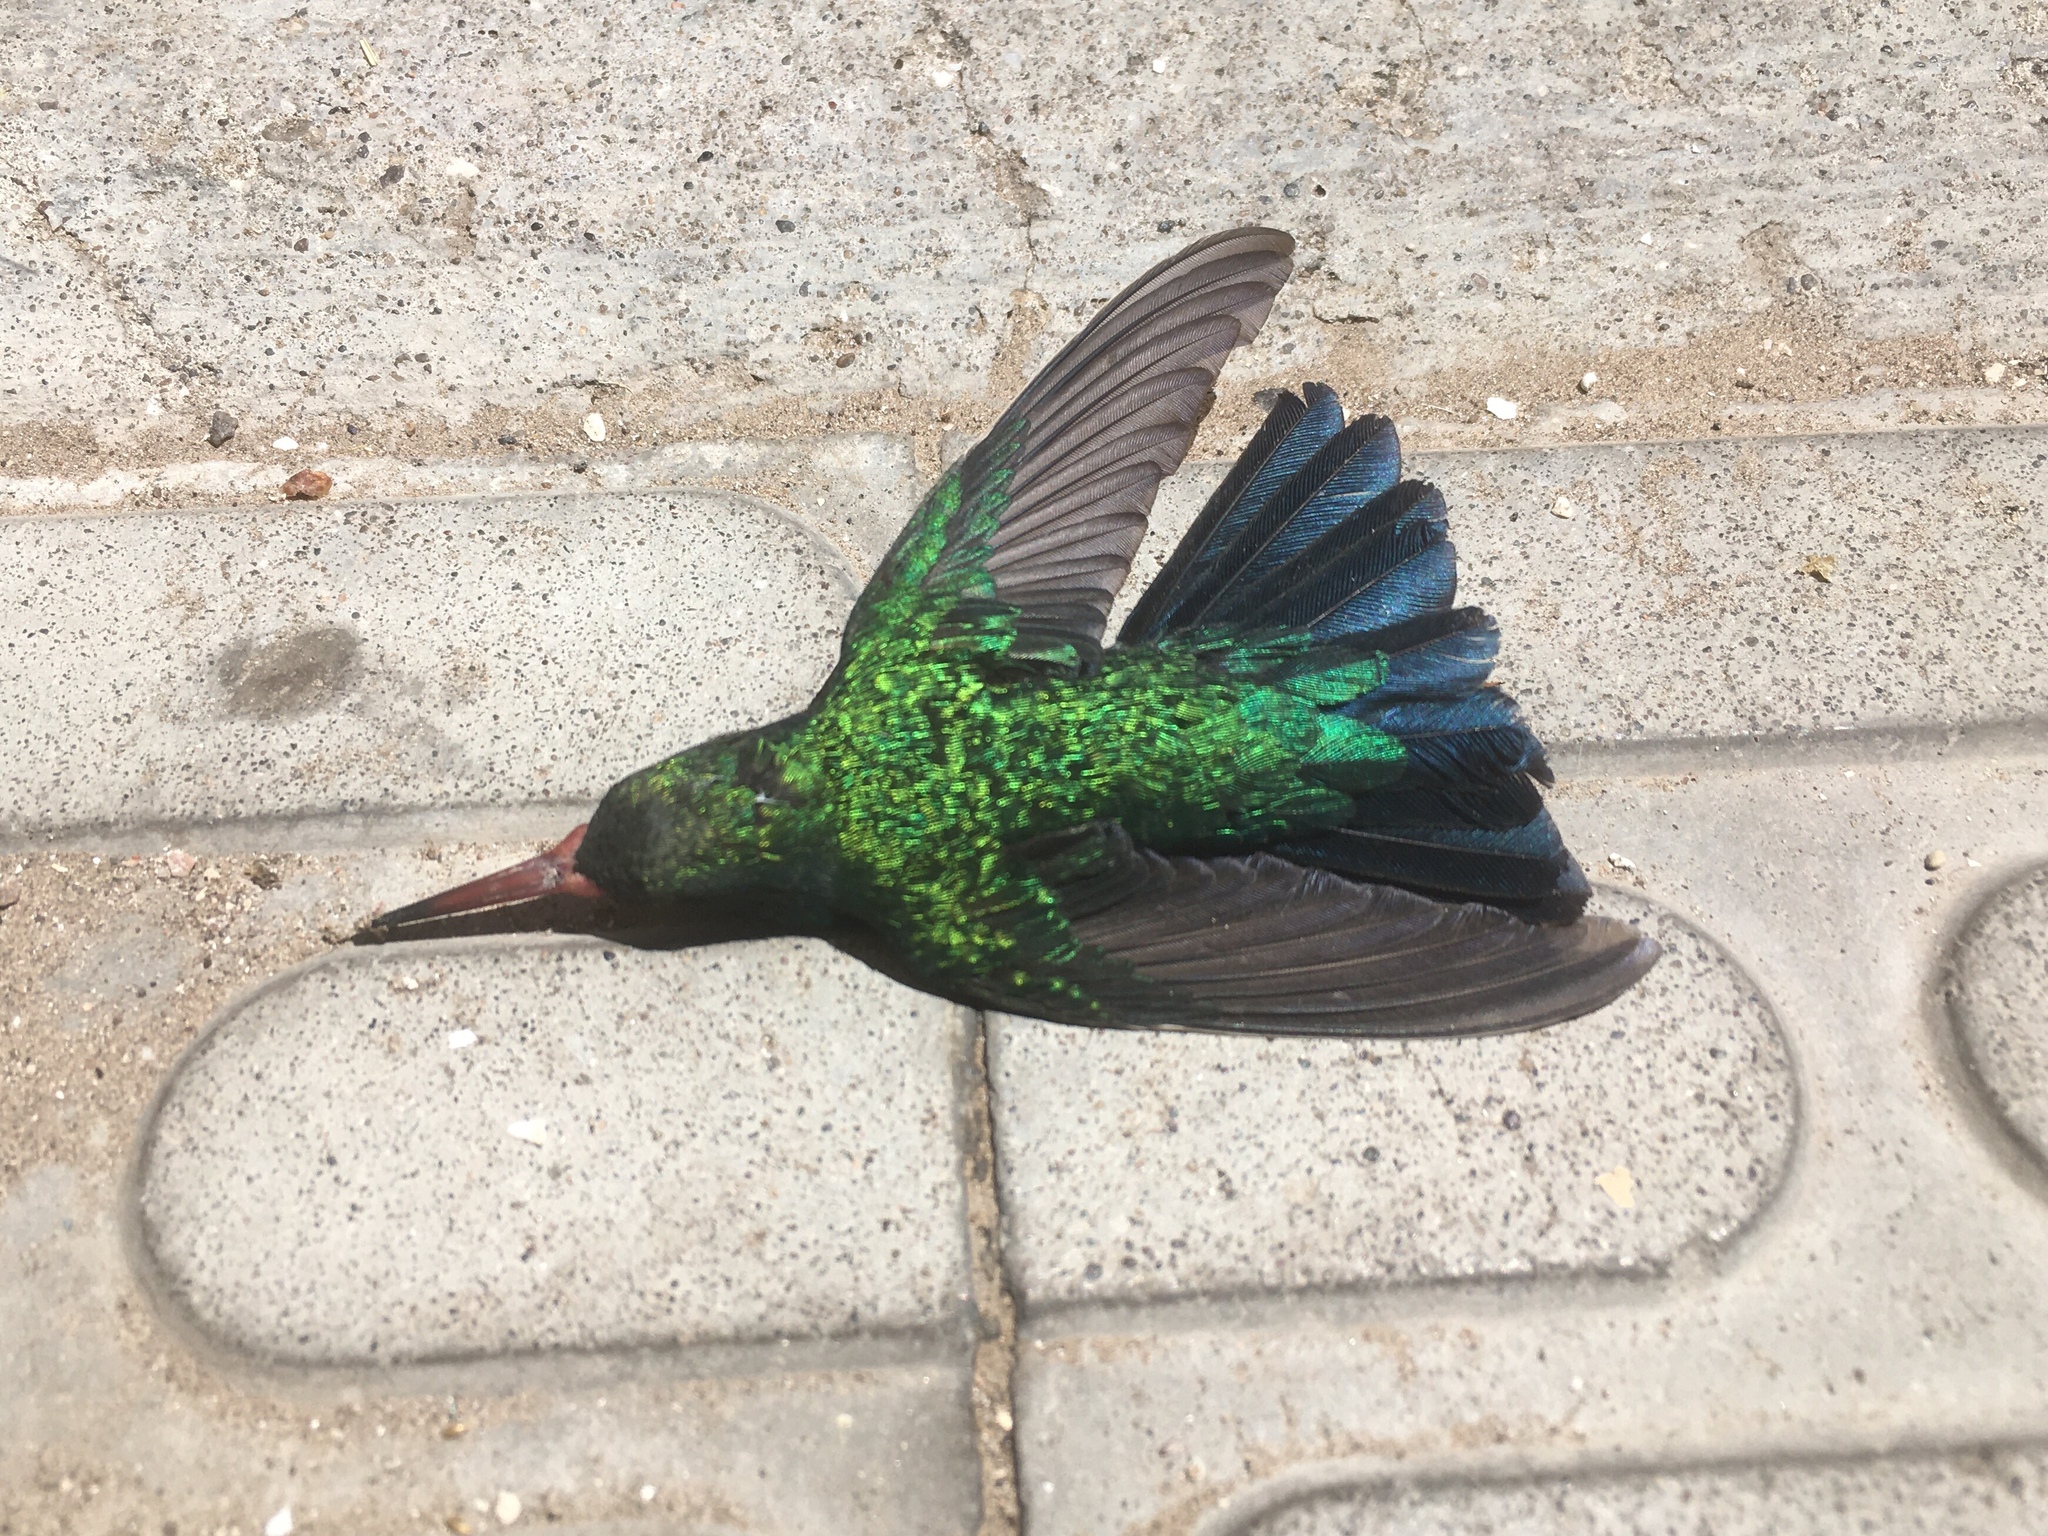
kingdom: Animalia
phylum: Chordata
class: Aves
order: Apodiformes
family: Trochilidae
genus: Chlorostilbon
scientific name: Chlorostilbon lucidus
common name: Glittering-bellied emerald
